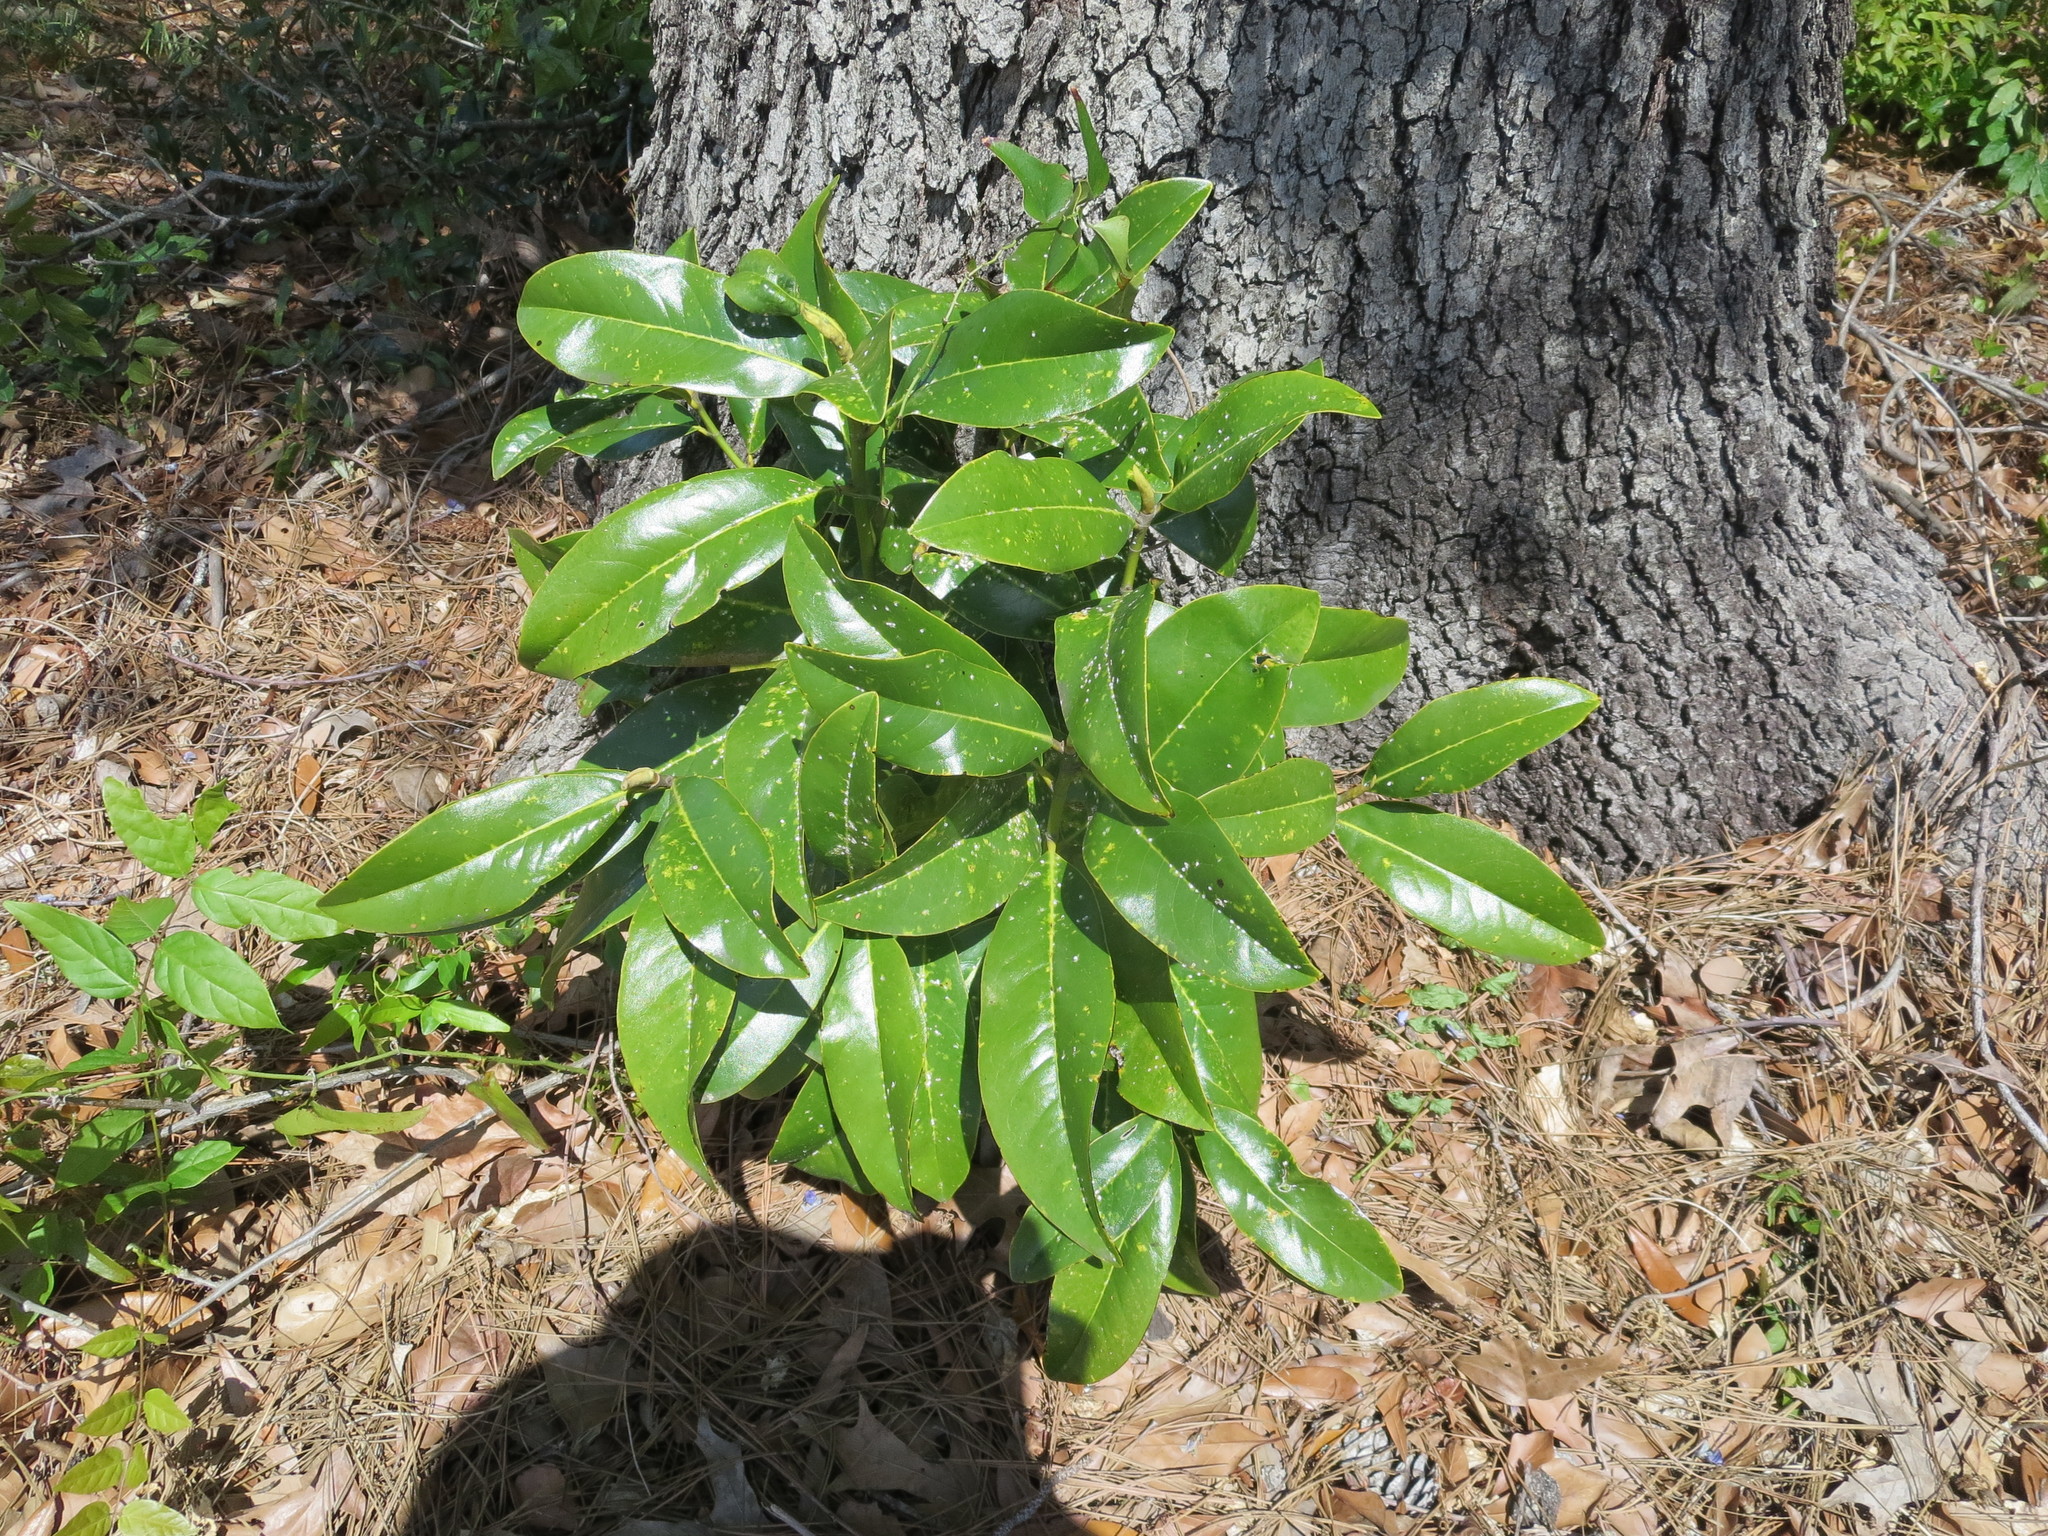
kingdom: Plantae
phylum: Tracheophyta
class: Magnoliopsida
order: Magnoliales
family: Magnoliaceae
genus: Magnolia
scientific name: Magnolia grandiflora
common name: Southern magnolia
